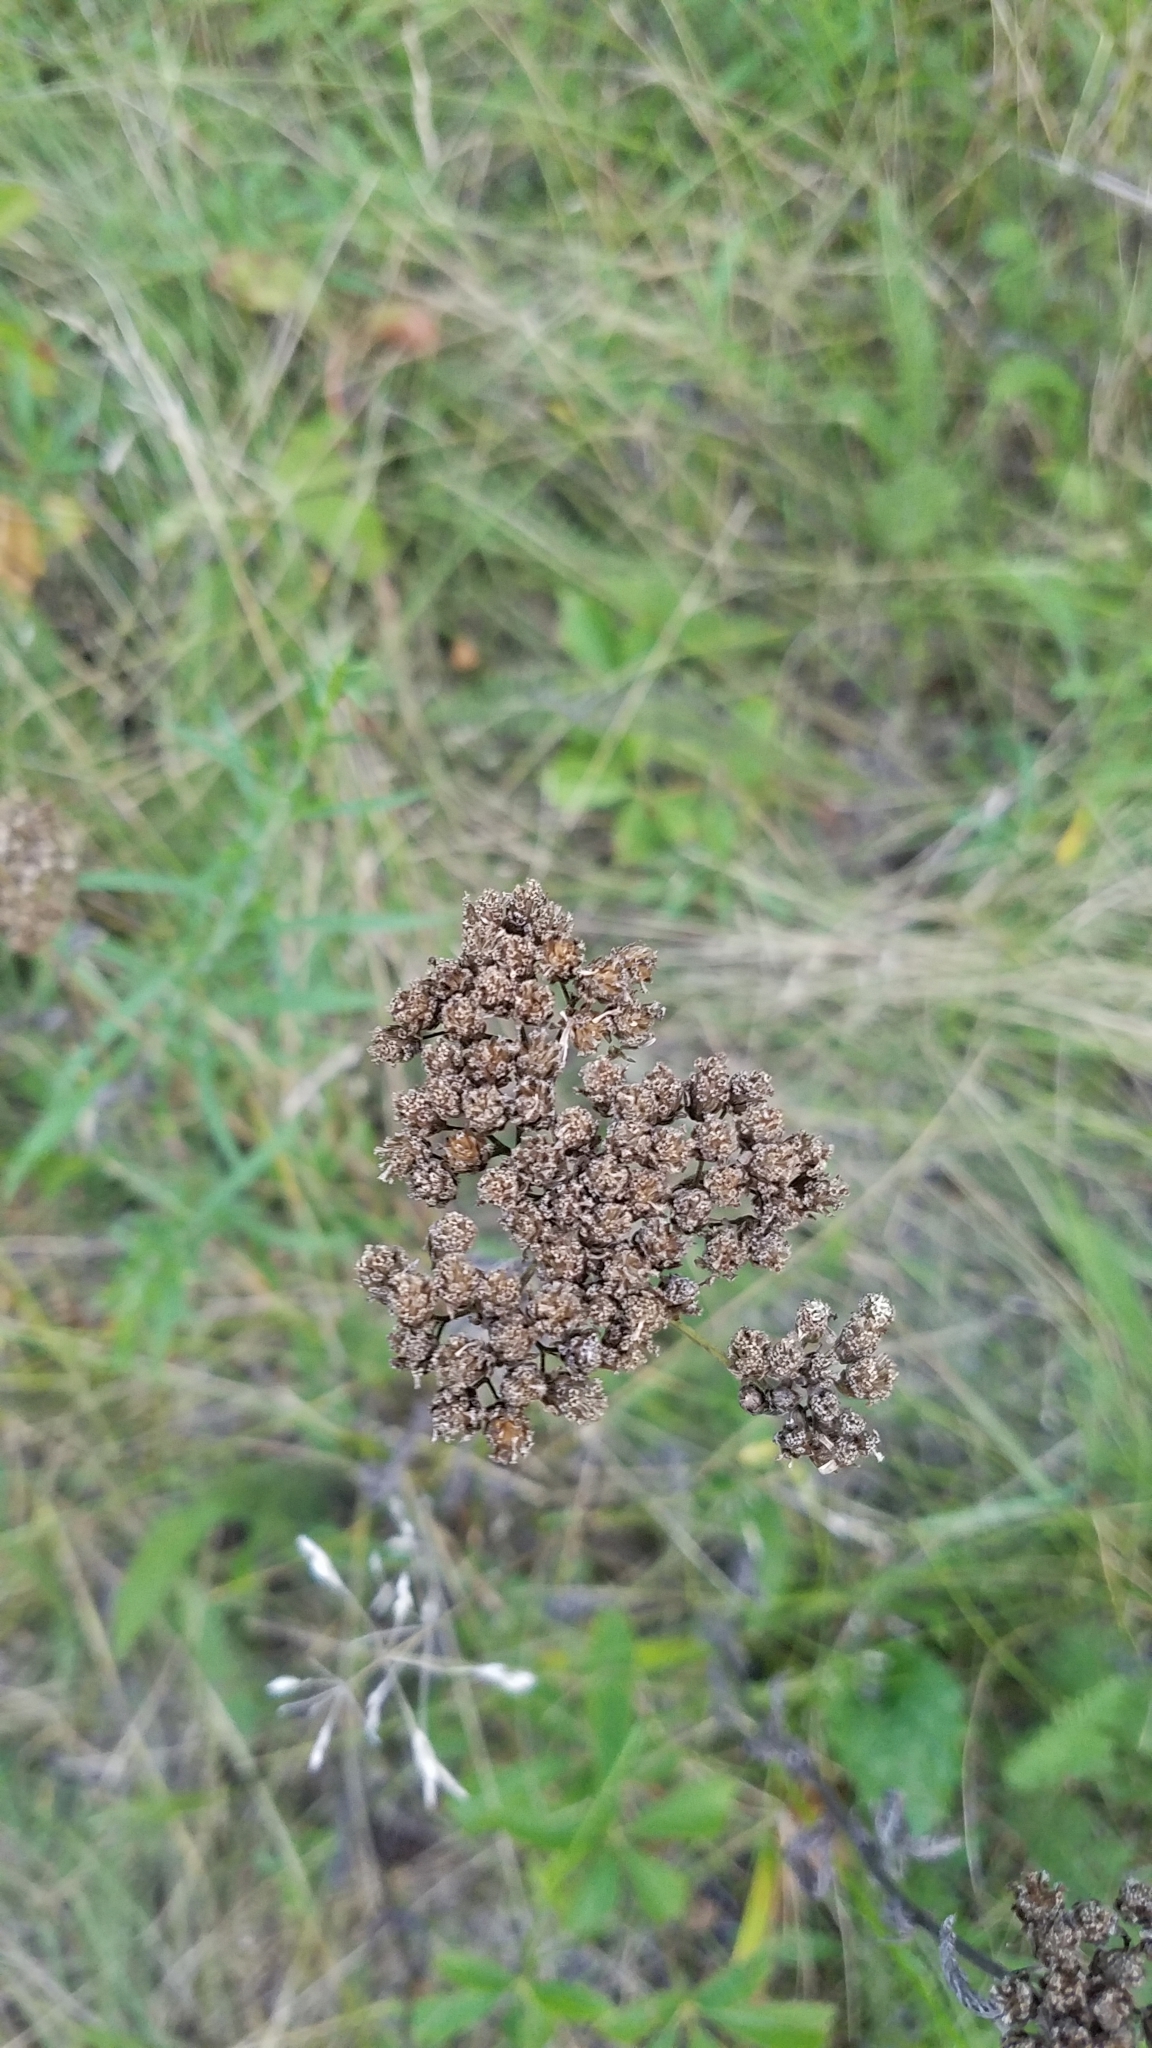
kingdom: Plantae
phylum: Tracheophyta
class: Magnoliopsida
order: Asterales
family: Asteraceae
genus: Achillea
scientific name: Achillea millefolium
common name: Yarrow
